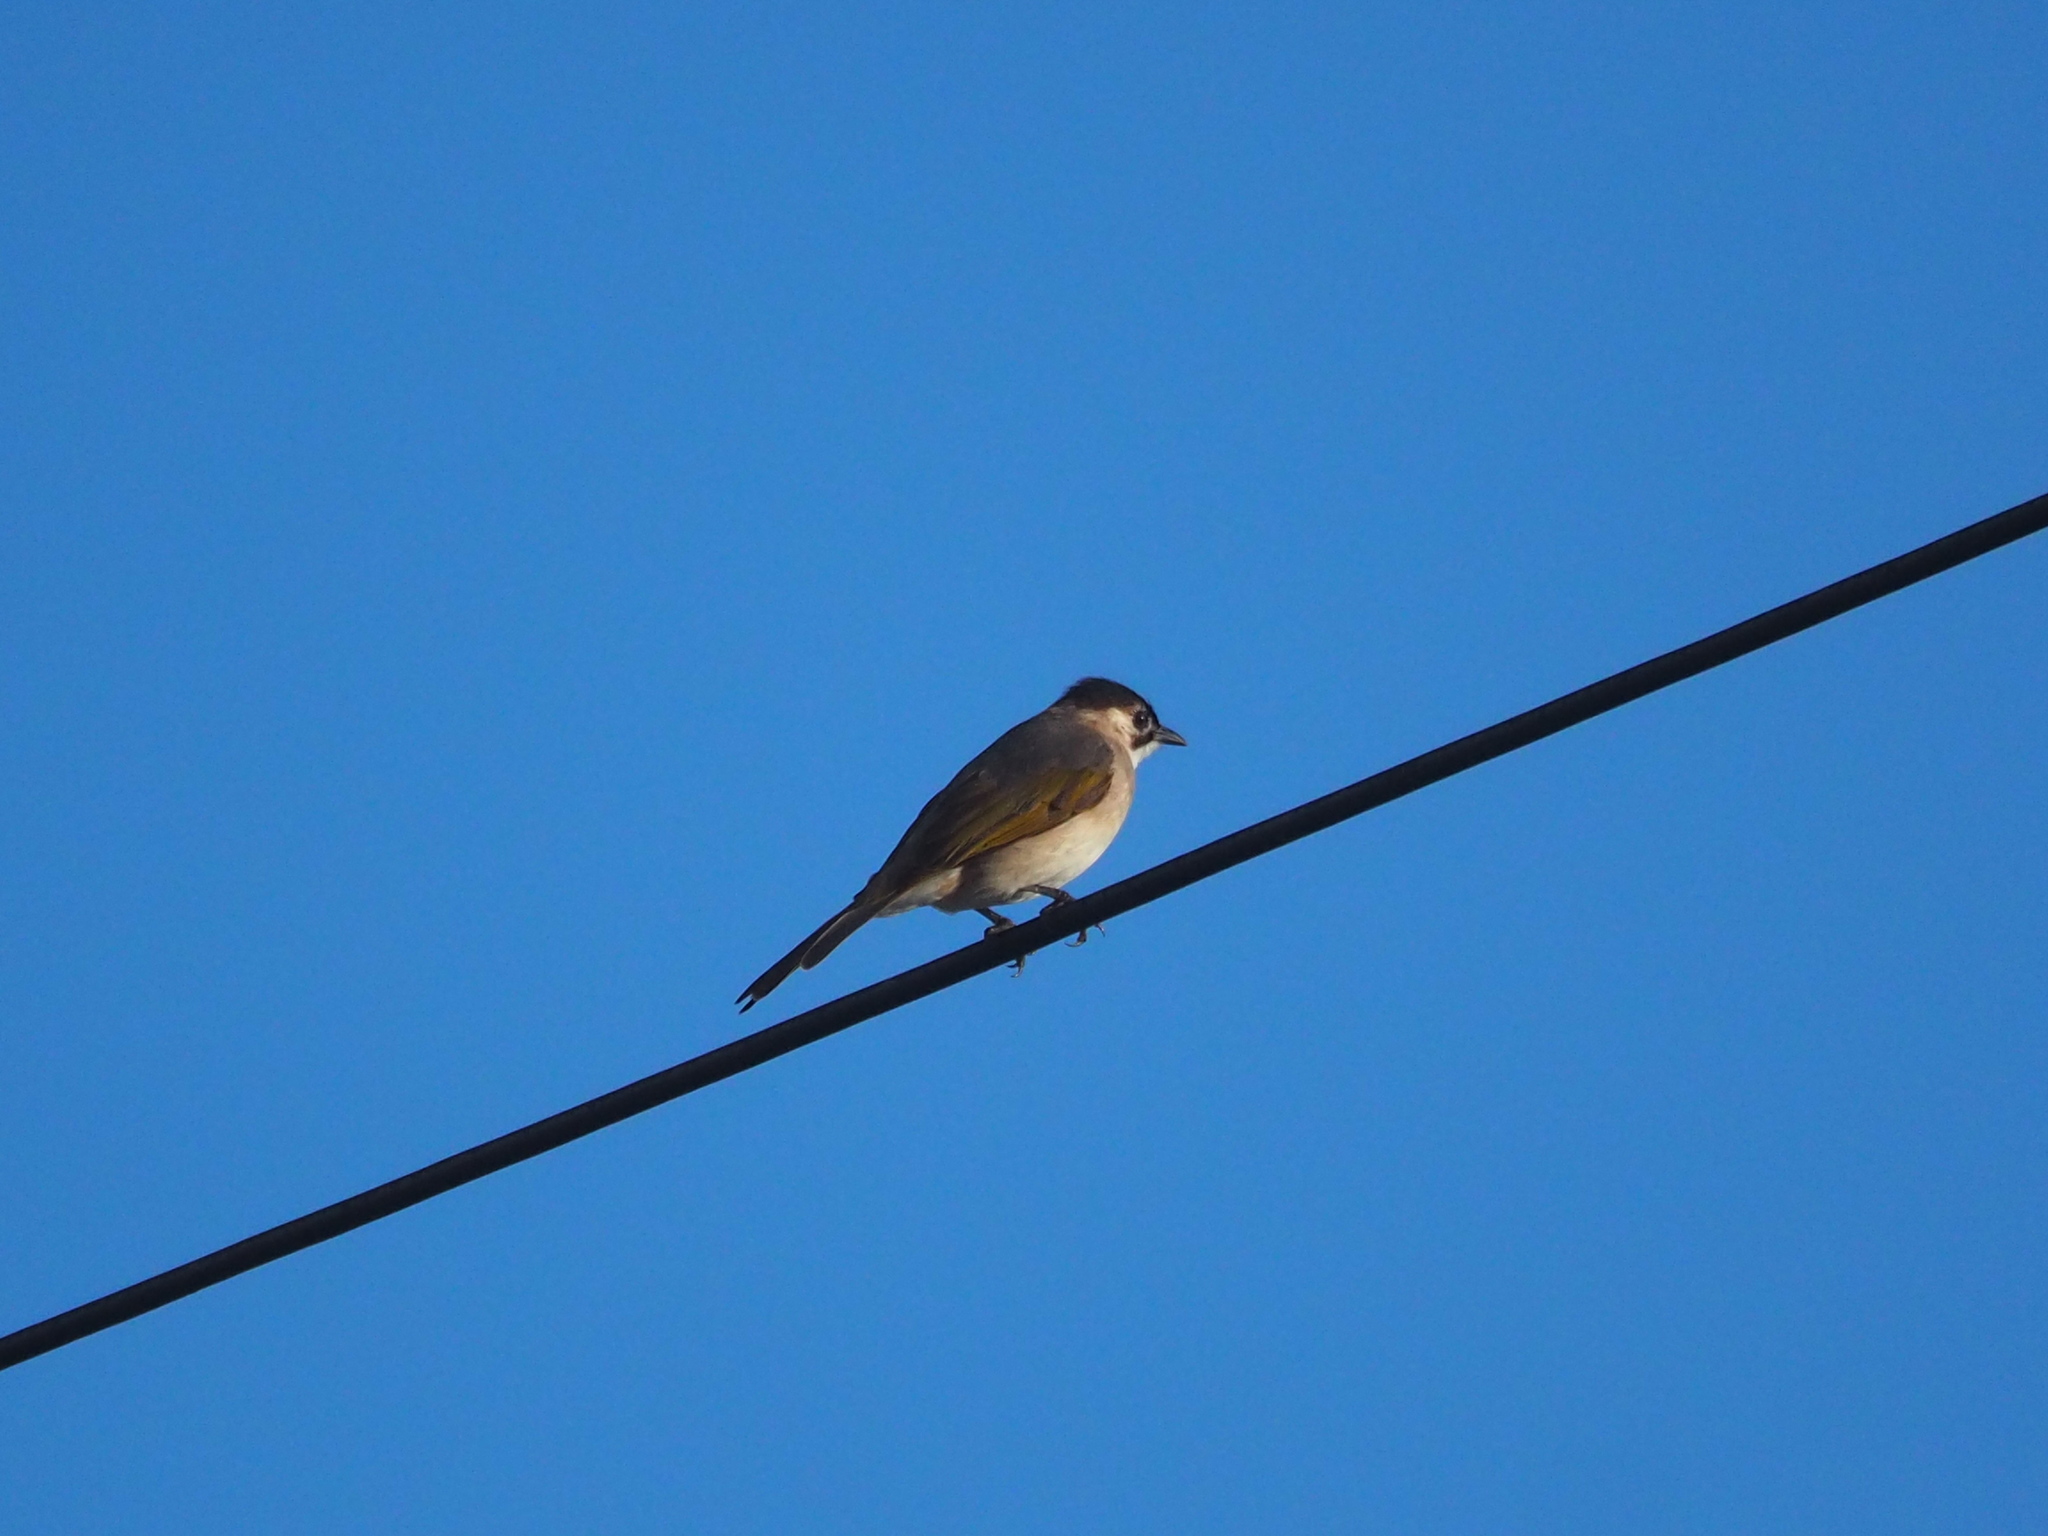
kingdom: Animalia
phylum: Chordata
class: Aves
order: Passeriformes
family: Pycnonotidae
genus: Pycnonotus
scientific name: Pycnonotus taivanus
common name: Styan's bulbul
